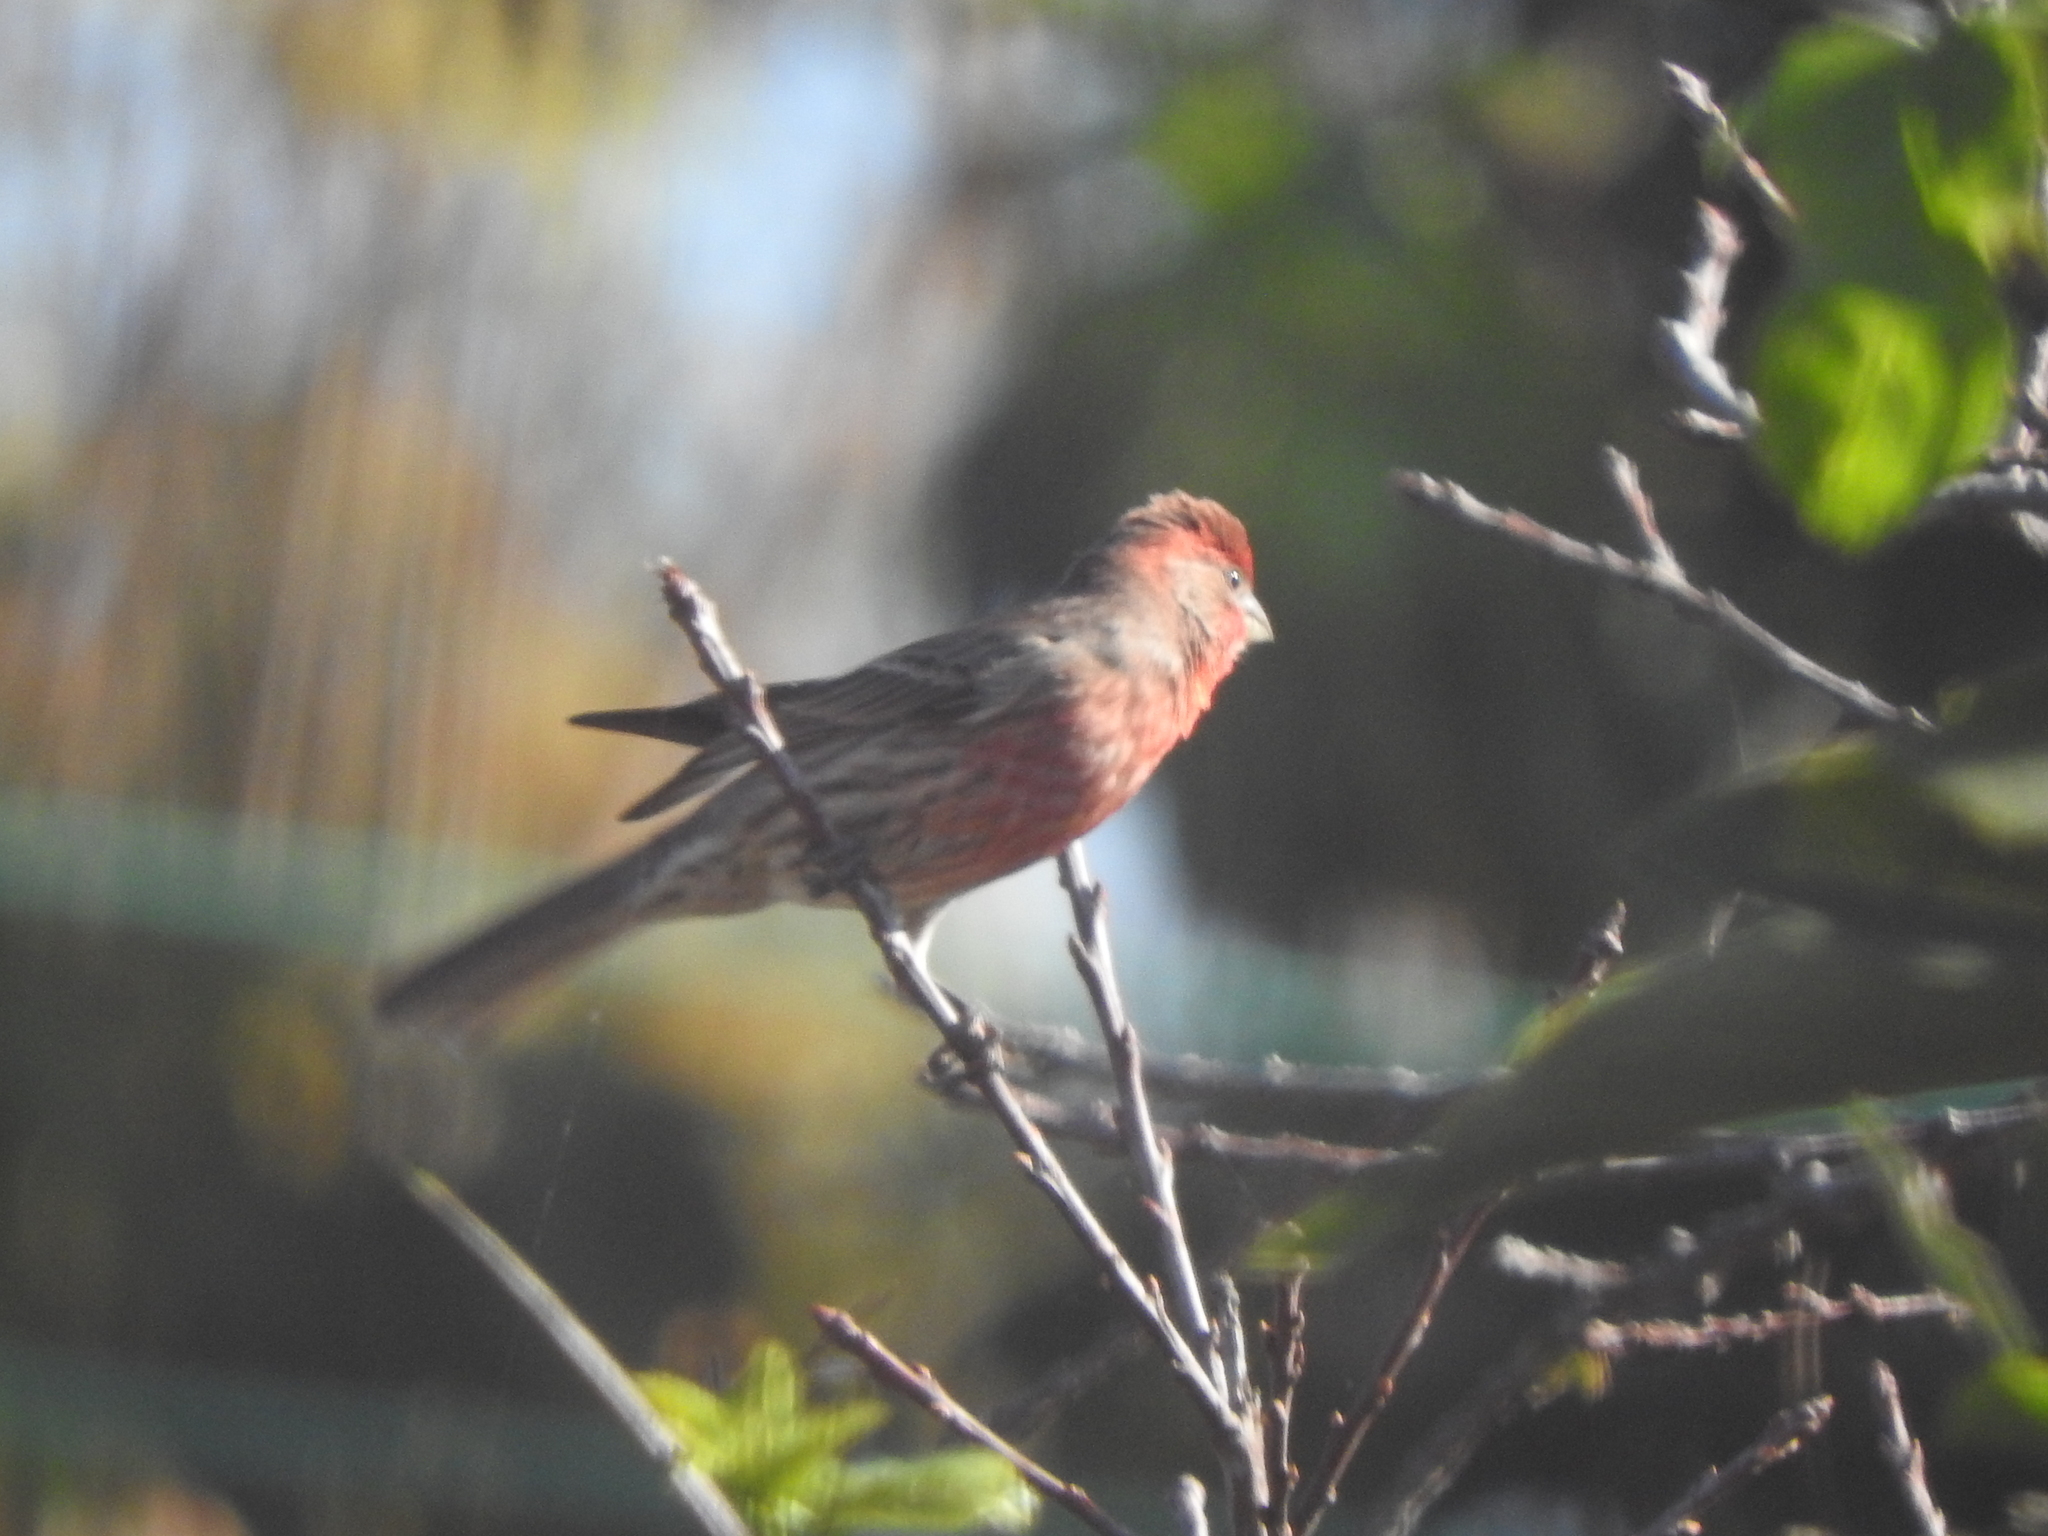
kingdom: Animalia
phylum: Chordata
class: Aves
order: Passeriformes
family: Fringillidae
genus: Haemorhous
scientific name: Haemorhous mexicanus
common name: House finch
